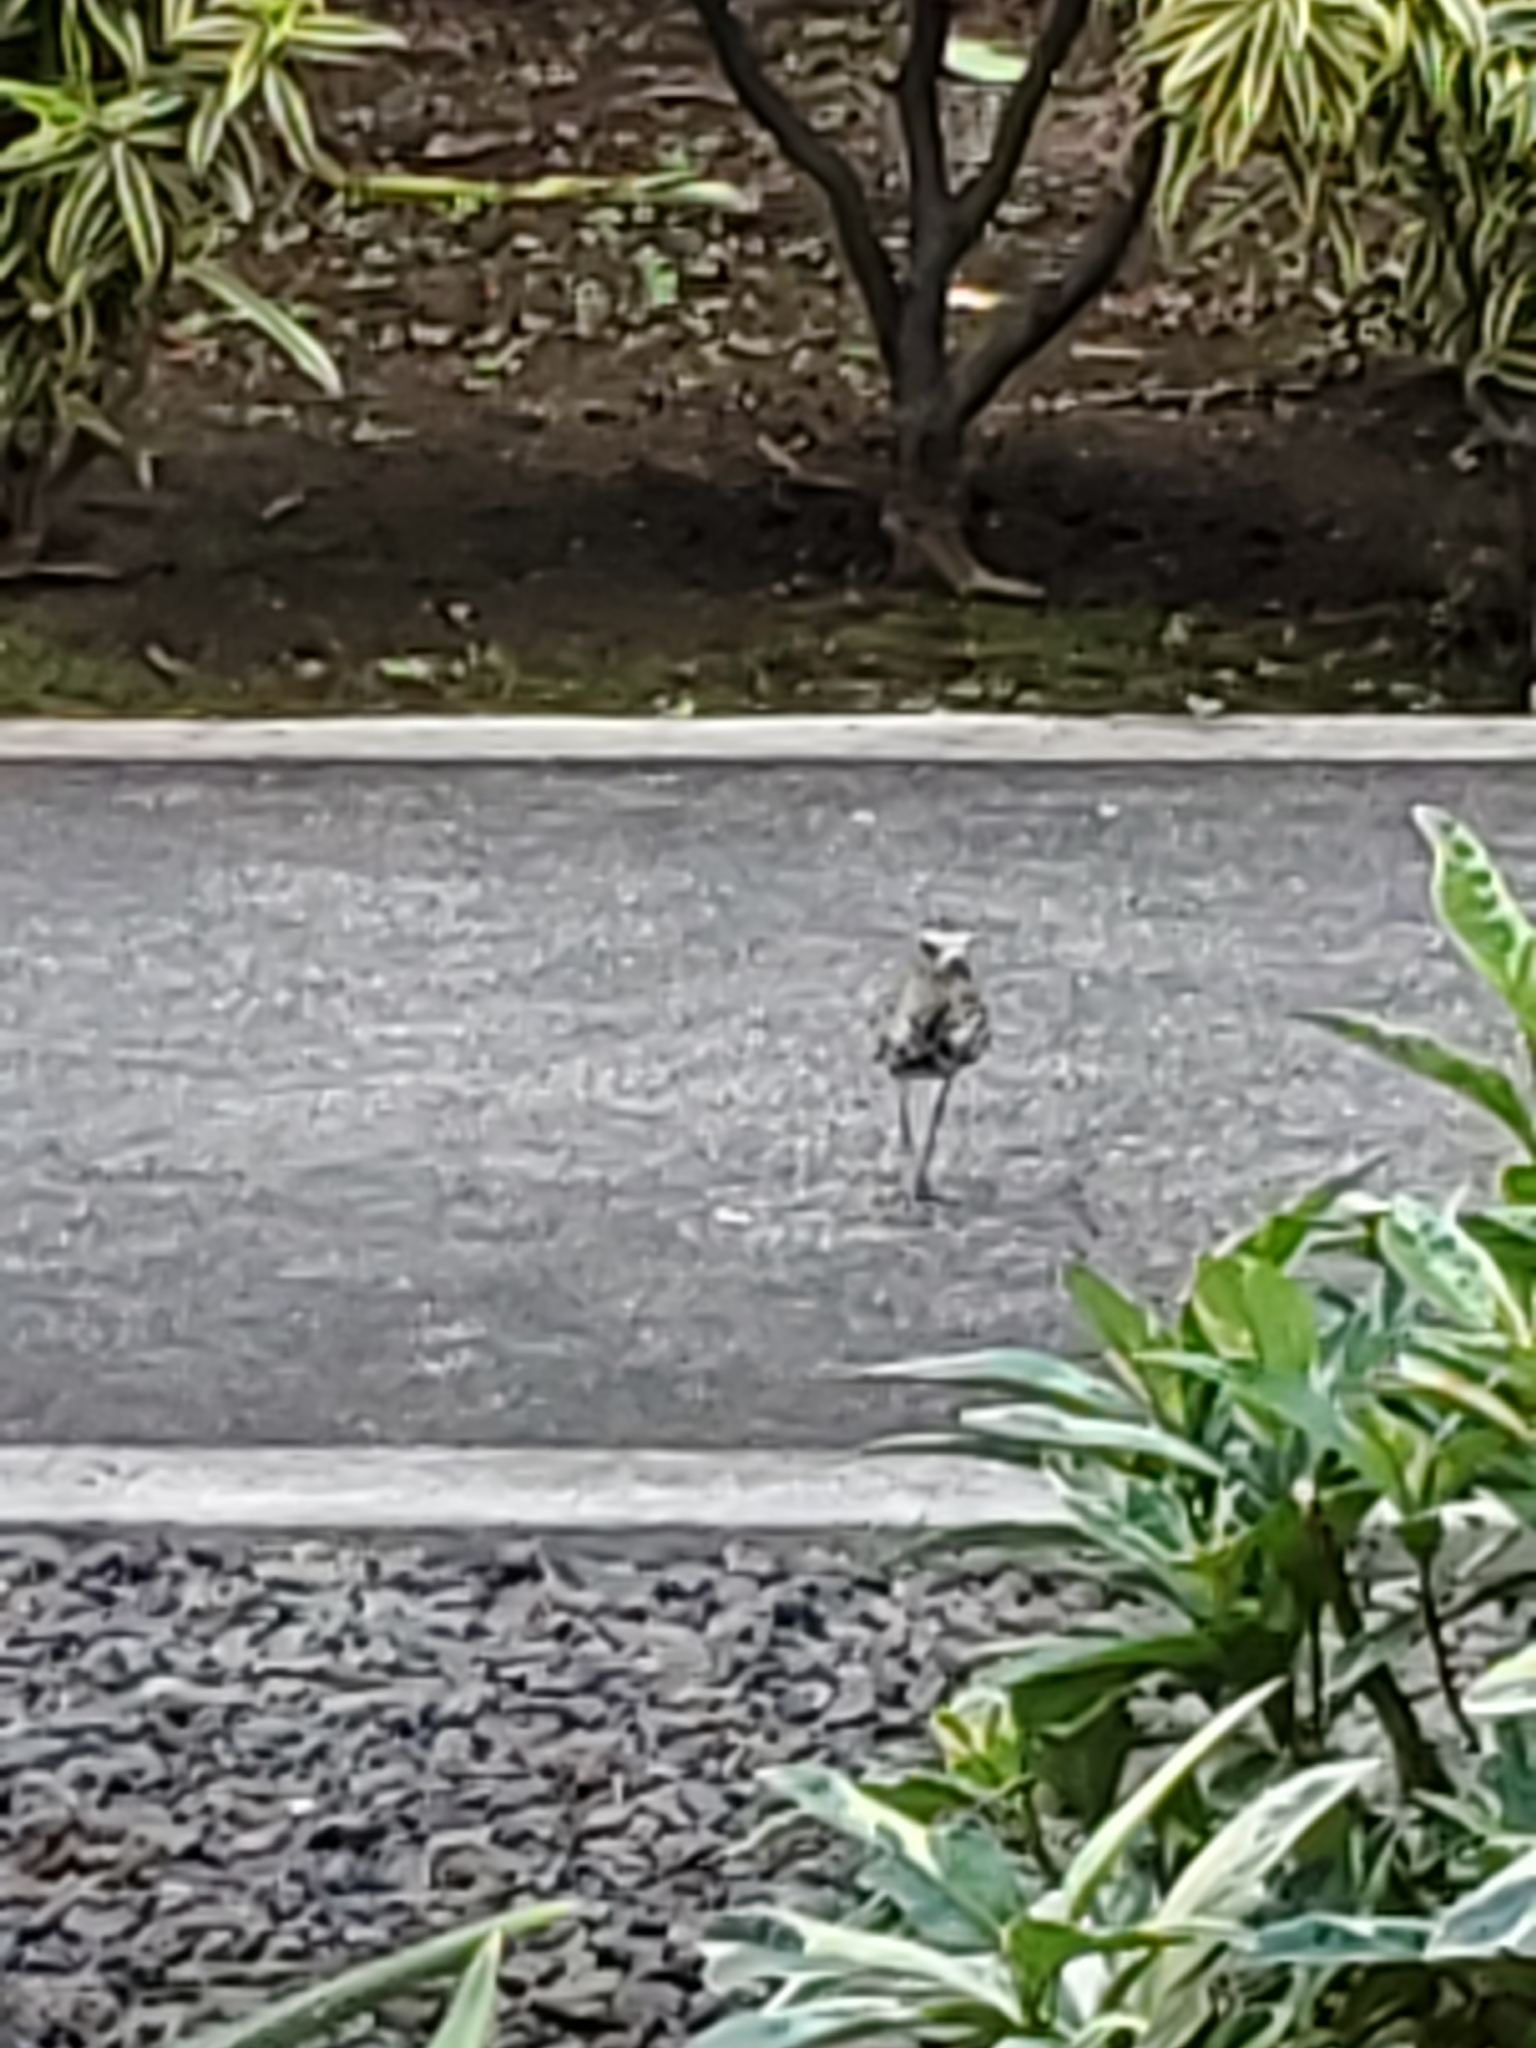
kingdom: Animalia
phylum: Chordata
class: Aves
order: Charadriiformes
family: Charadriidae
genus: Pluvialis
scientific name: Pluvialis fulva
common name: Pacific golden plover
